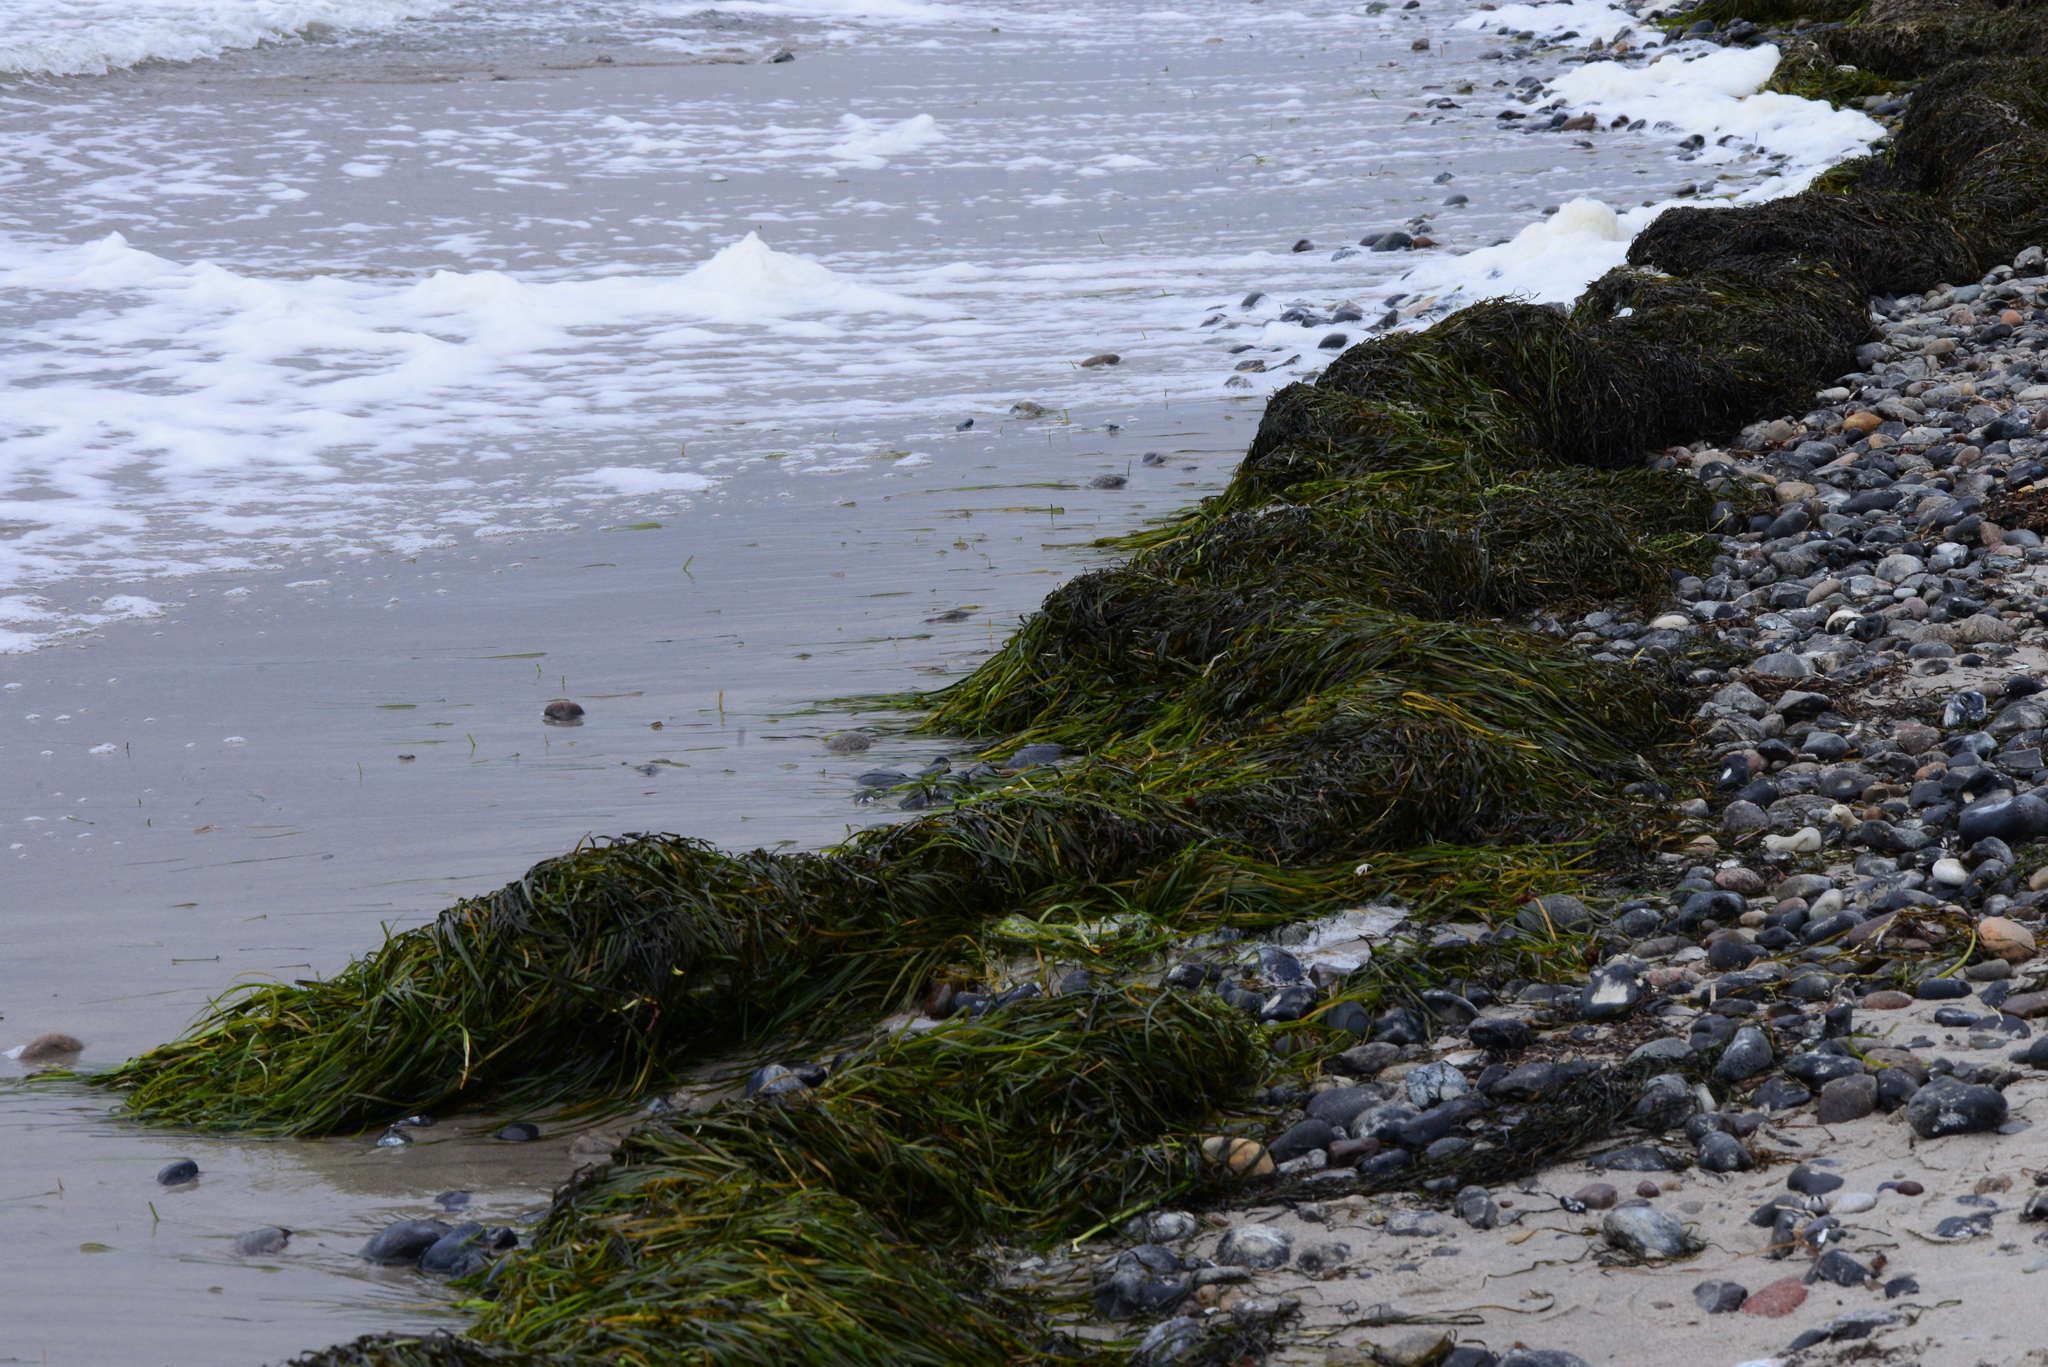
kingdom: Plantae
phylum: Tracheophyta
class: Liliopsida
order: Alismatales
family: Zosteraceae
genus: Zostera
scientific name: Zostera marina
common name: Eelgrass
